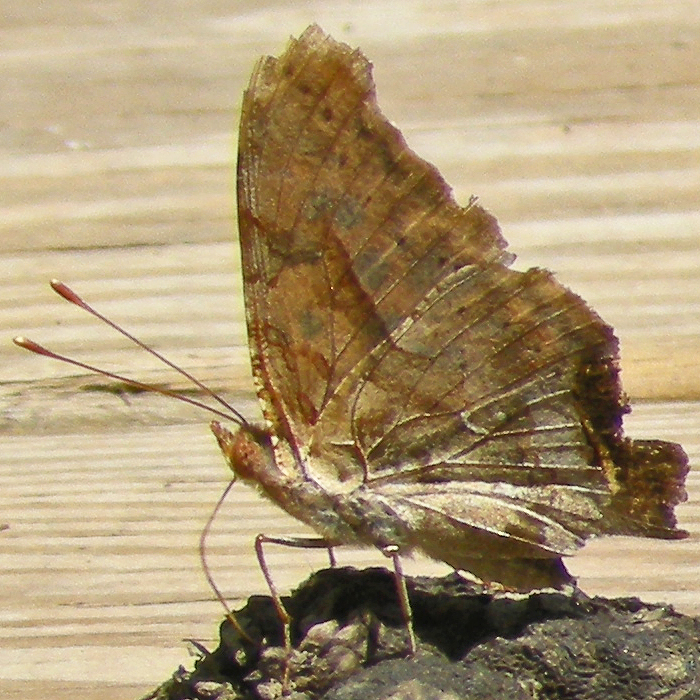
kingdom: Animalia
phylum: Arthropoda
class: Insecta
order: Lepidoptera
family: Nymphalidae
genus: Polygonia
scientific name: Polygonia interrogationis
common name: Question mark
